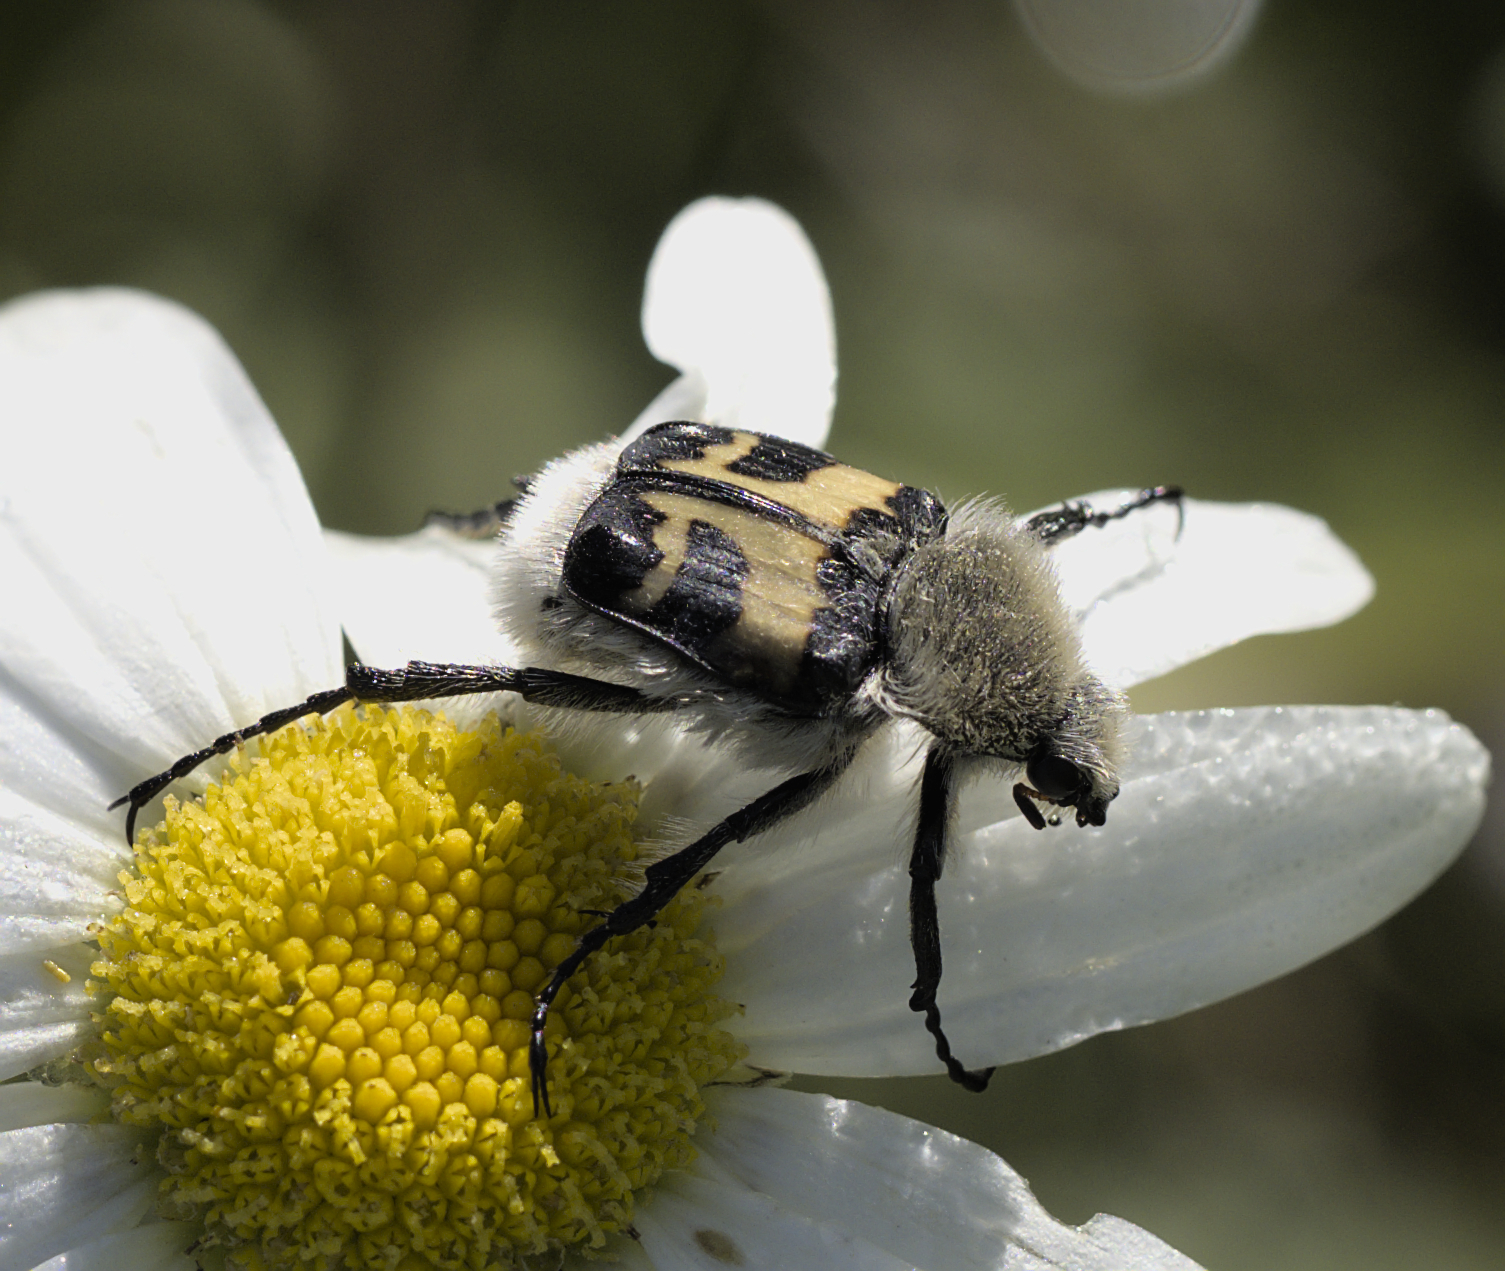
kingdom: Animalia
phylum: Arthropoda
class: Insecta
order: Coleoptera
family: Scarabaeidae
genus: Trichius
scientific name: Trichius fasciatus
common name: Bee beetle
